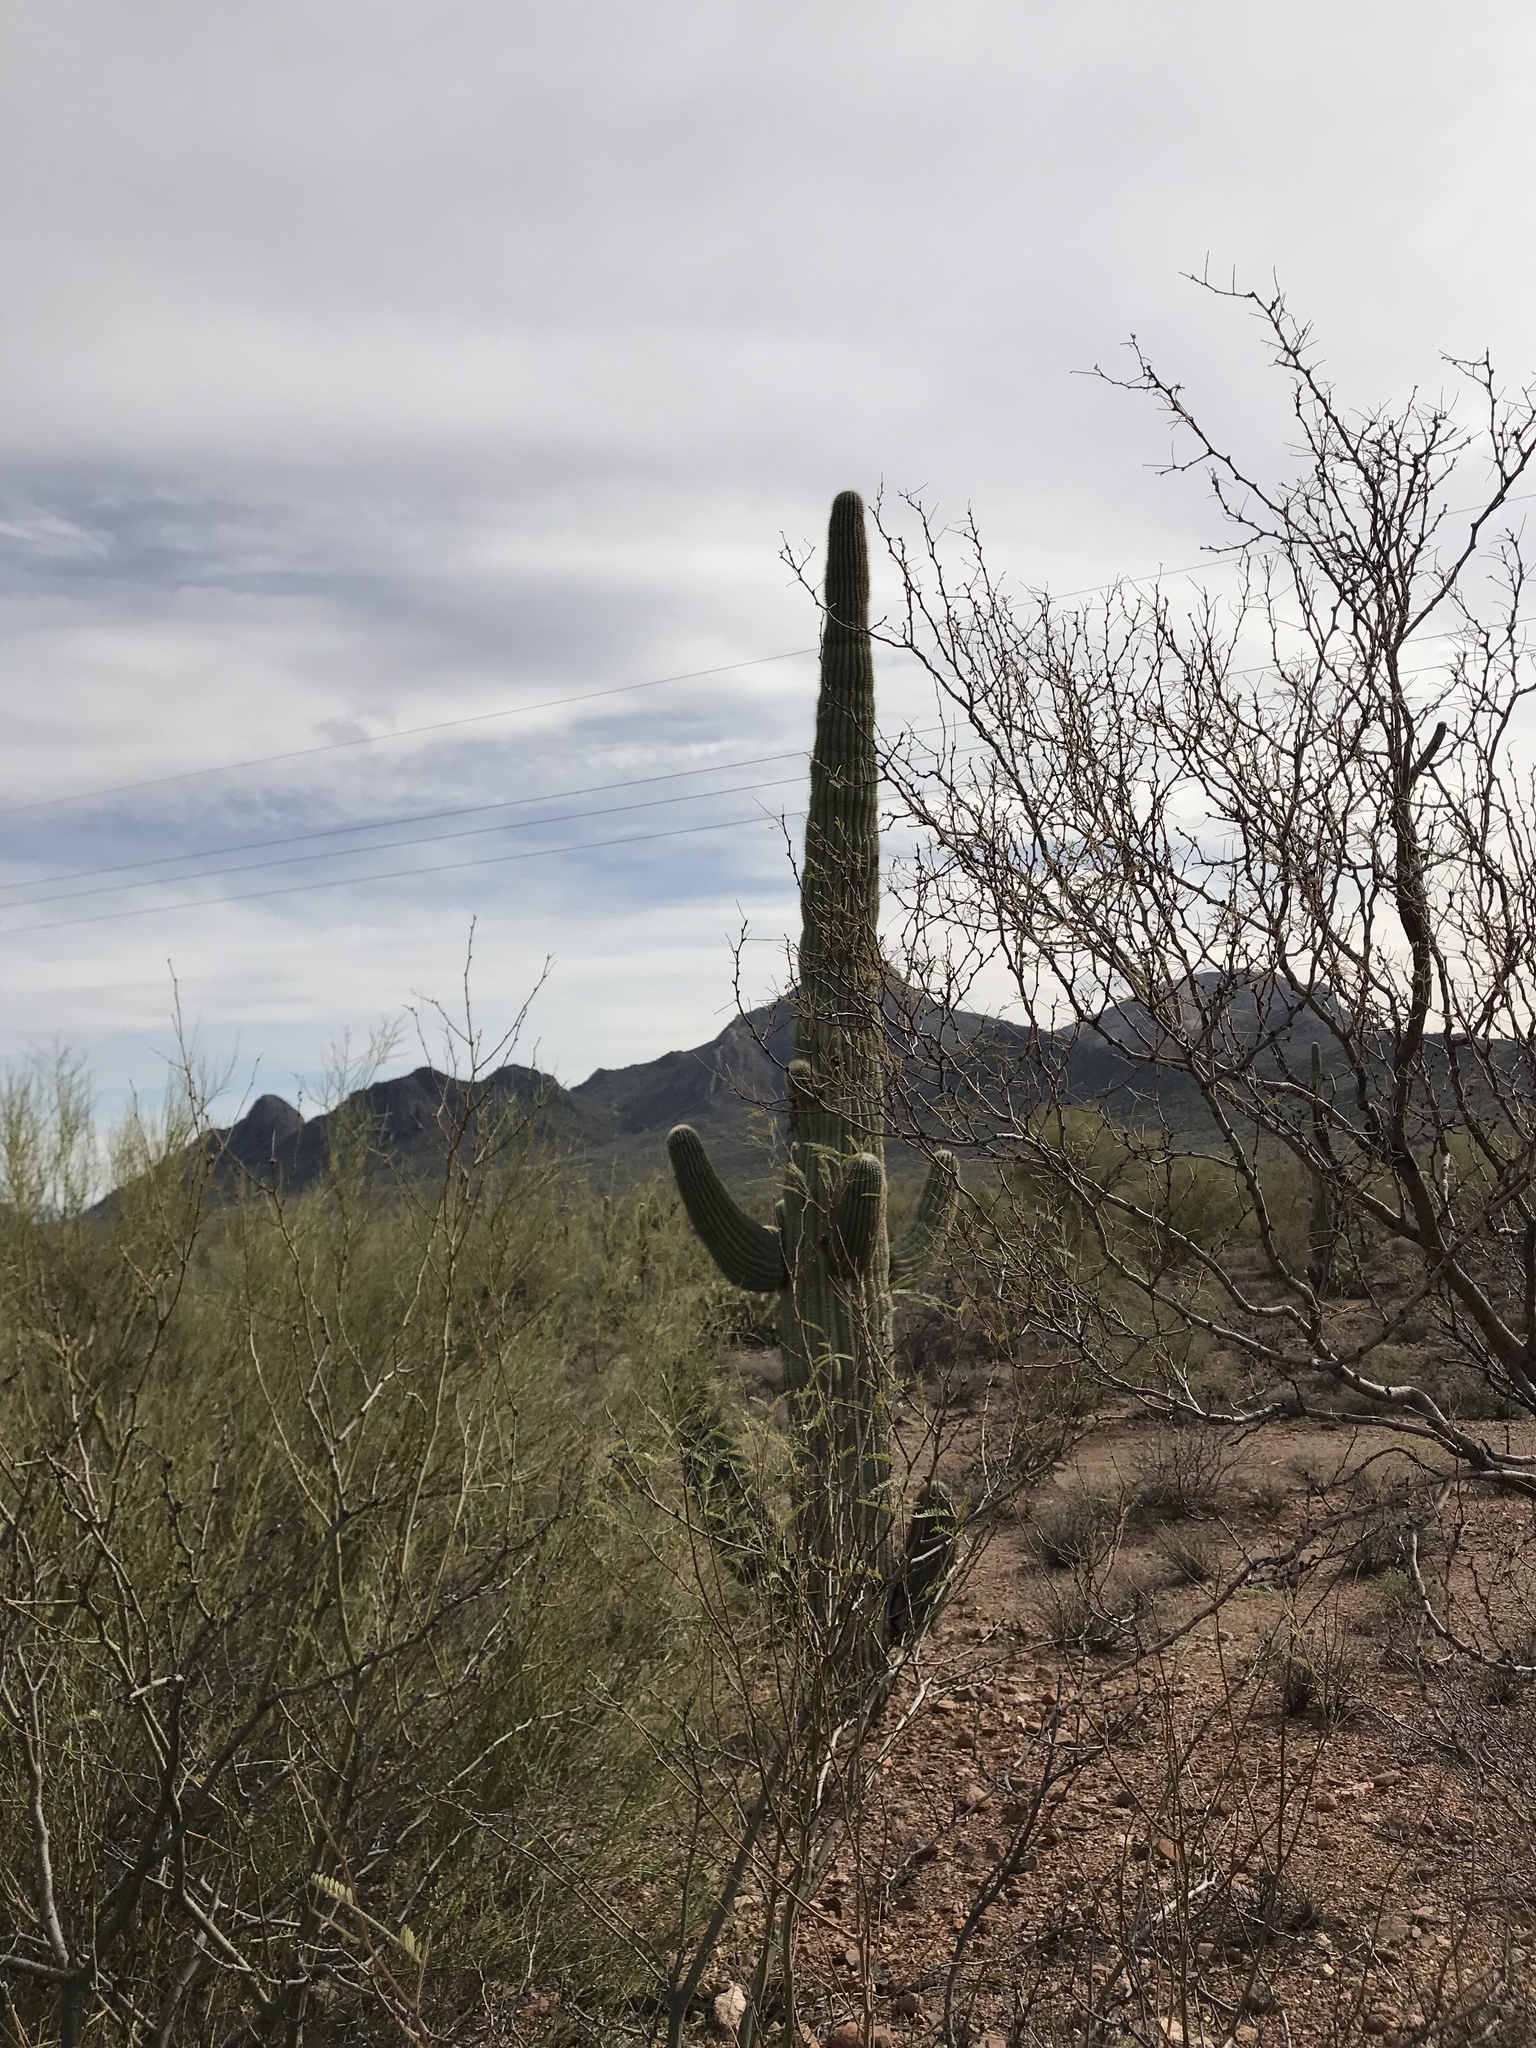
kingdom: Plantae
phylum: Tracheophyta
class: Magnoliopsida
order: Caryophyllales
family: Cactaceae
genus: Carnegiea
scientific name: Carnegiea gigantea
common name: Saguaro
